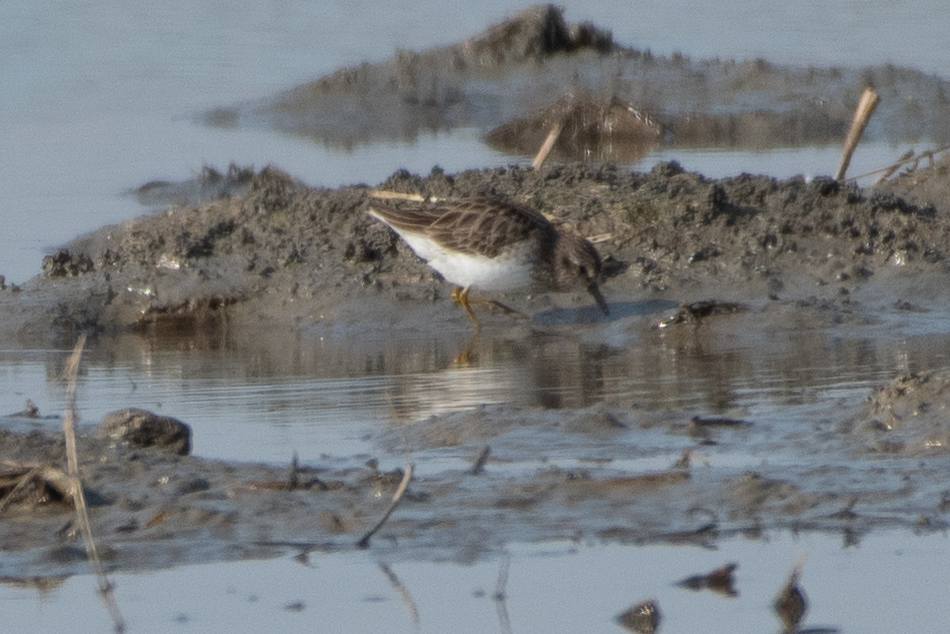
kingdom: Animalia
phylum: Chordata
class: Aves
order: Charadriiformes
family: Scolopacidae
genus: Calidris
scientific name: Calidris minutilla
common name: Least sandpiper
